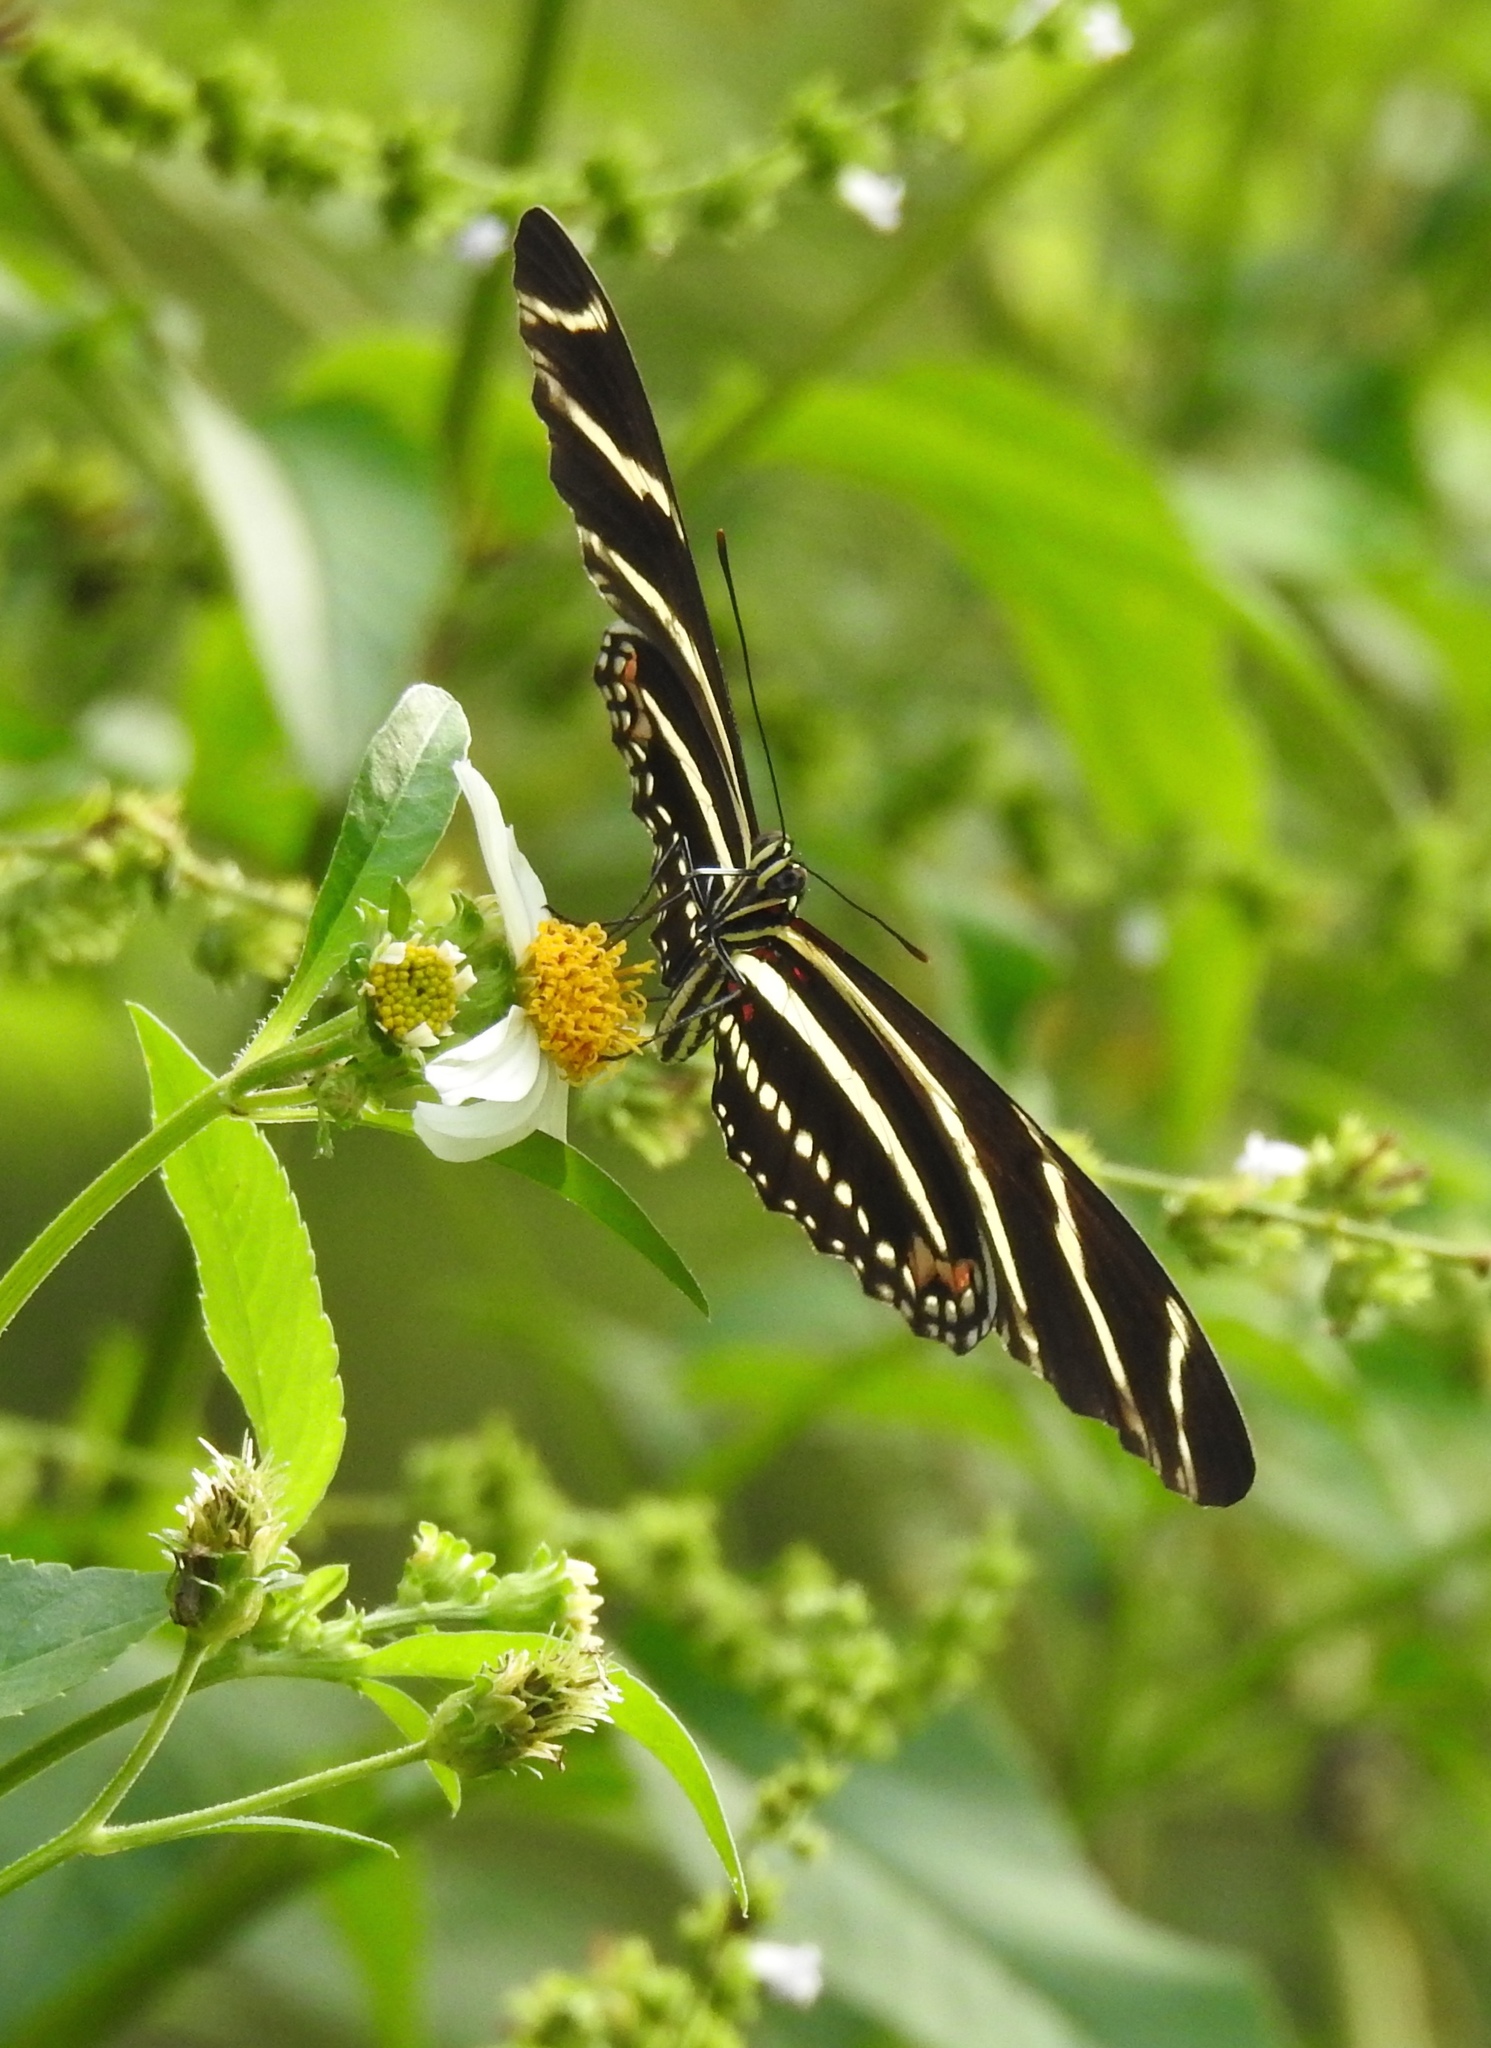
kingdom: Animalia
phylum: Arthropoda
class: Insecta
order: Lepidoptera
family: Nymphalidae
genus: Heliconius
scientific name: Heliconius charithonia
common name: Zebra long wing
